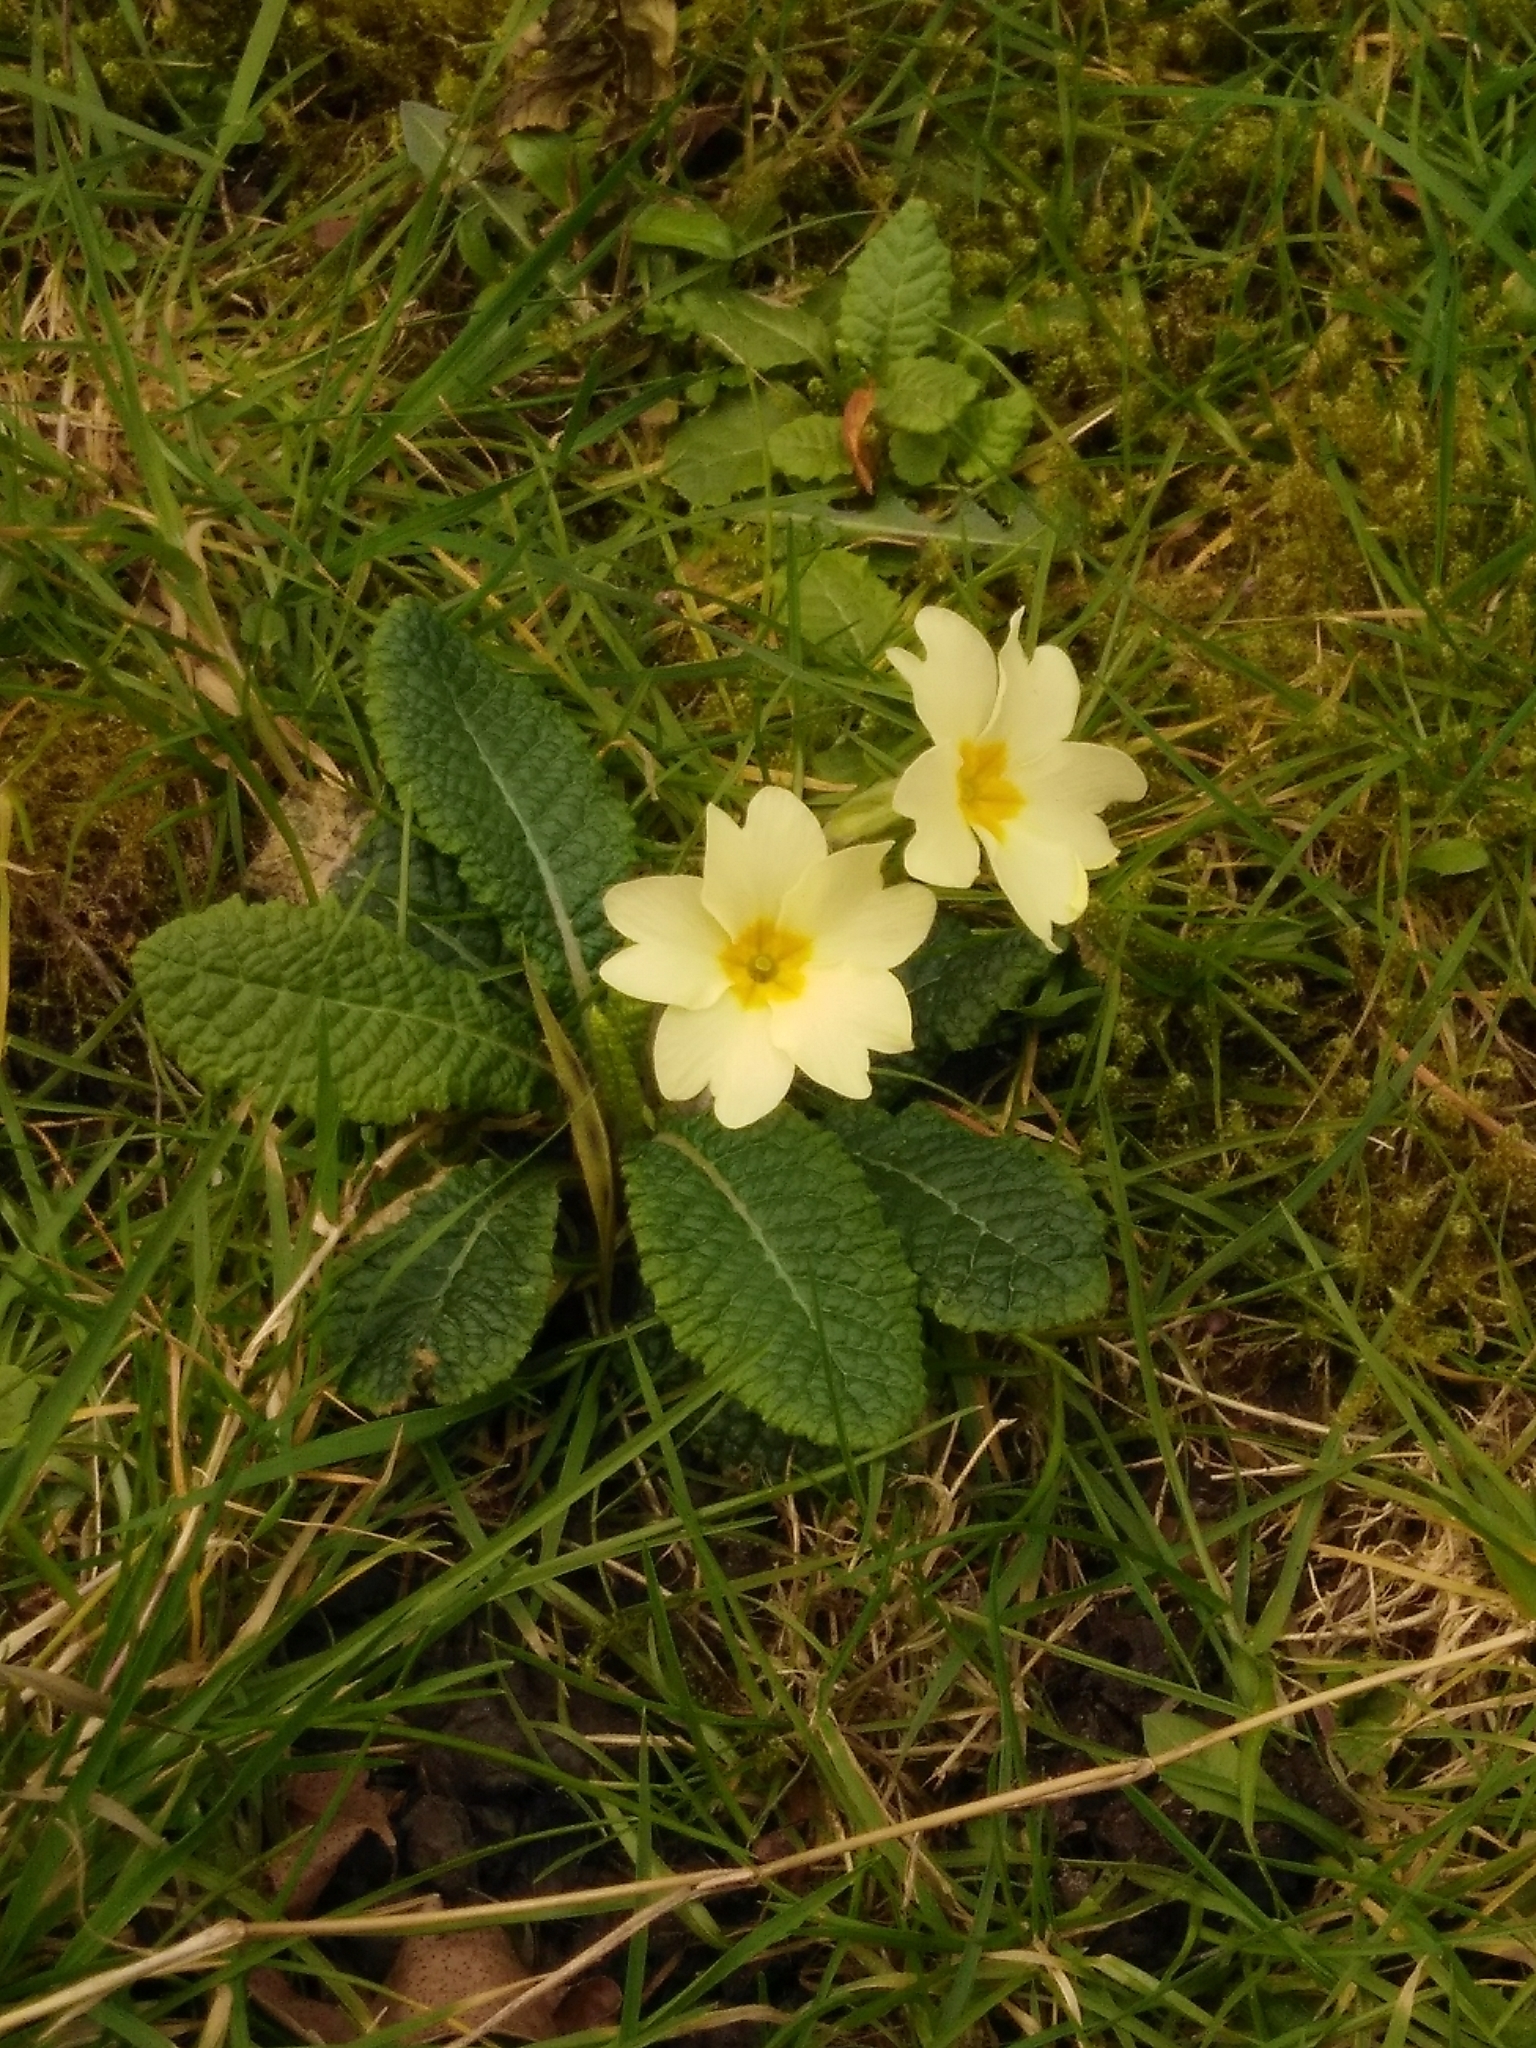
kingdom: Plantae
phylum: Tracheophyta
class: Magnoliopsida
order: Ericales
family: Primulaceae
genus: Primula
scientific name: Primula vulgaris
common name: Primrose
